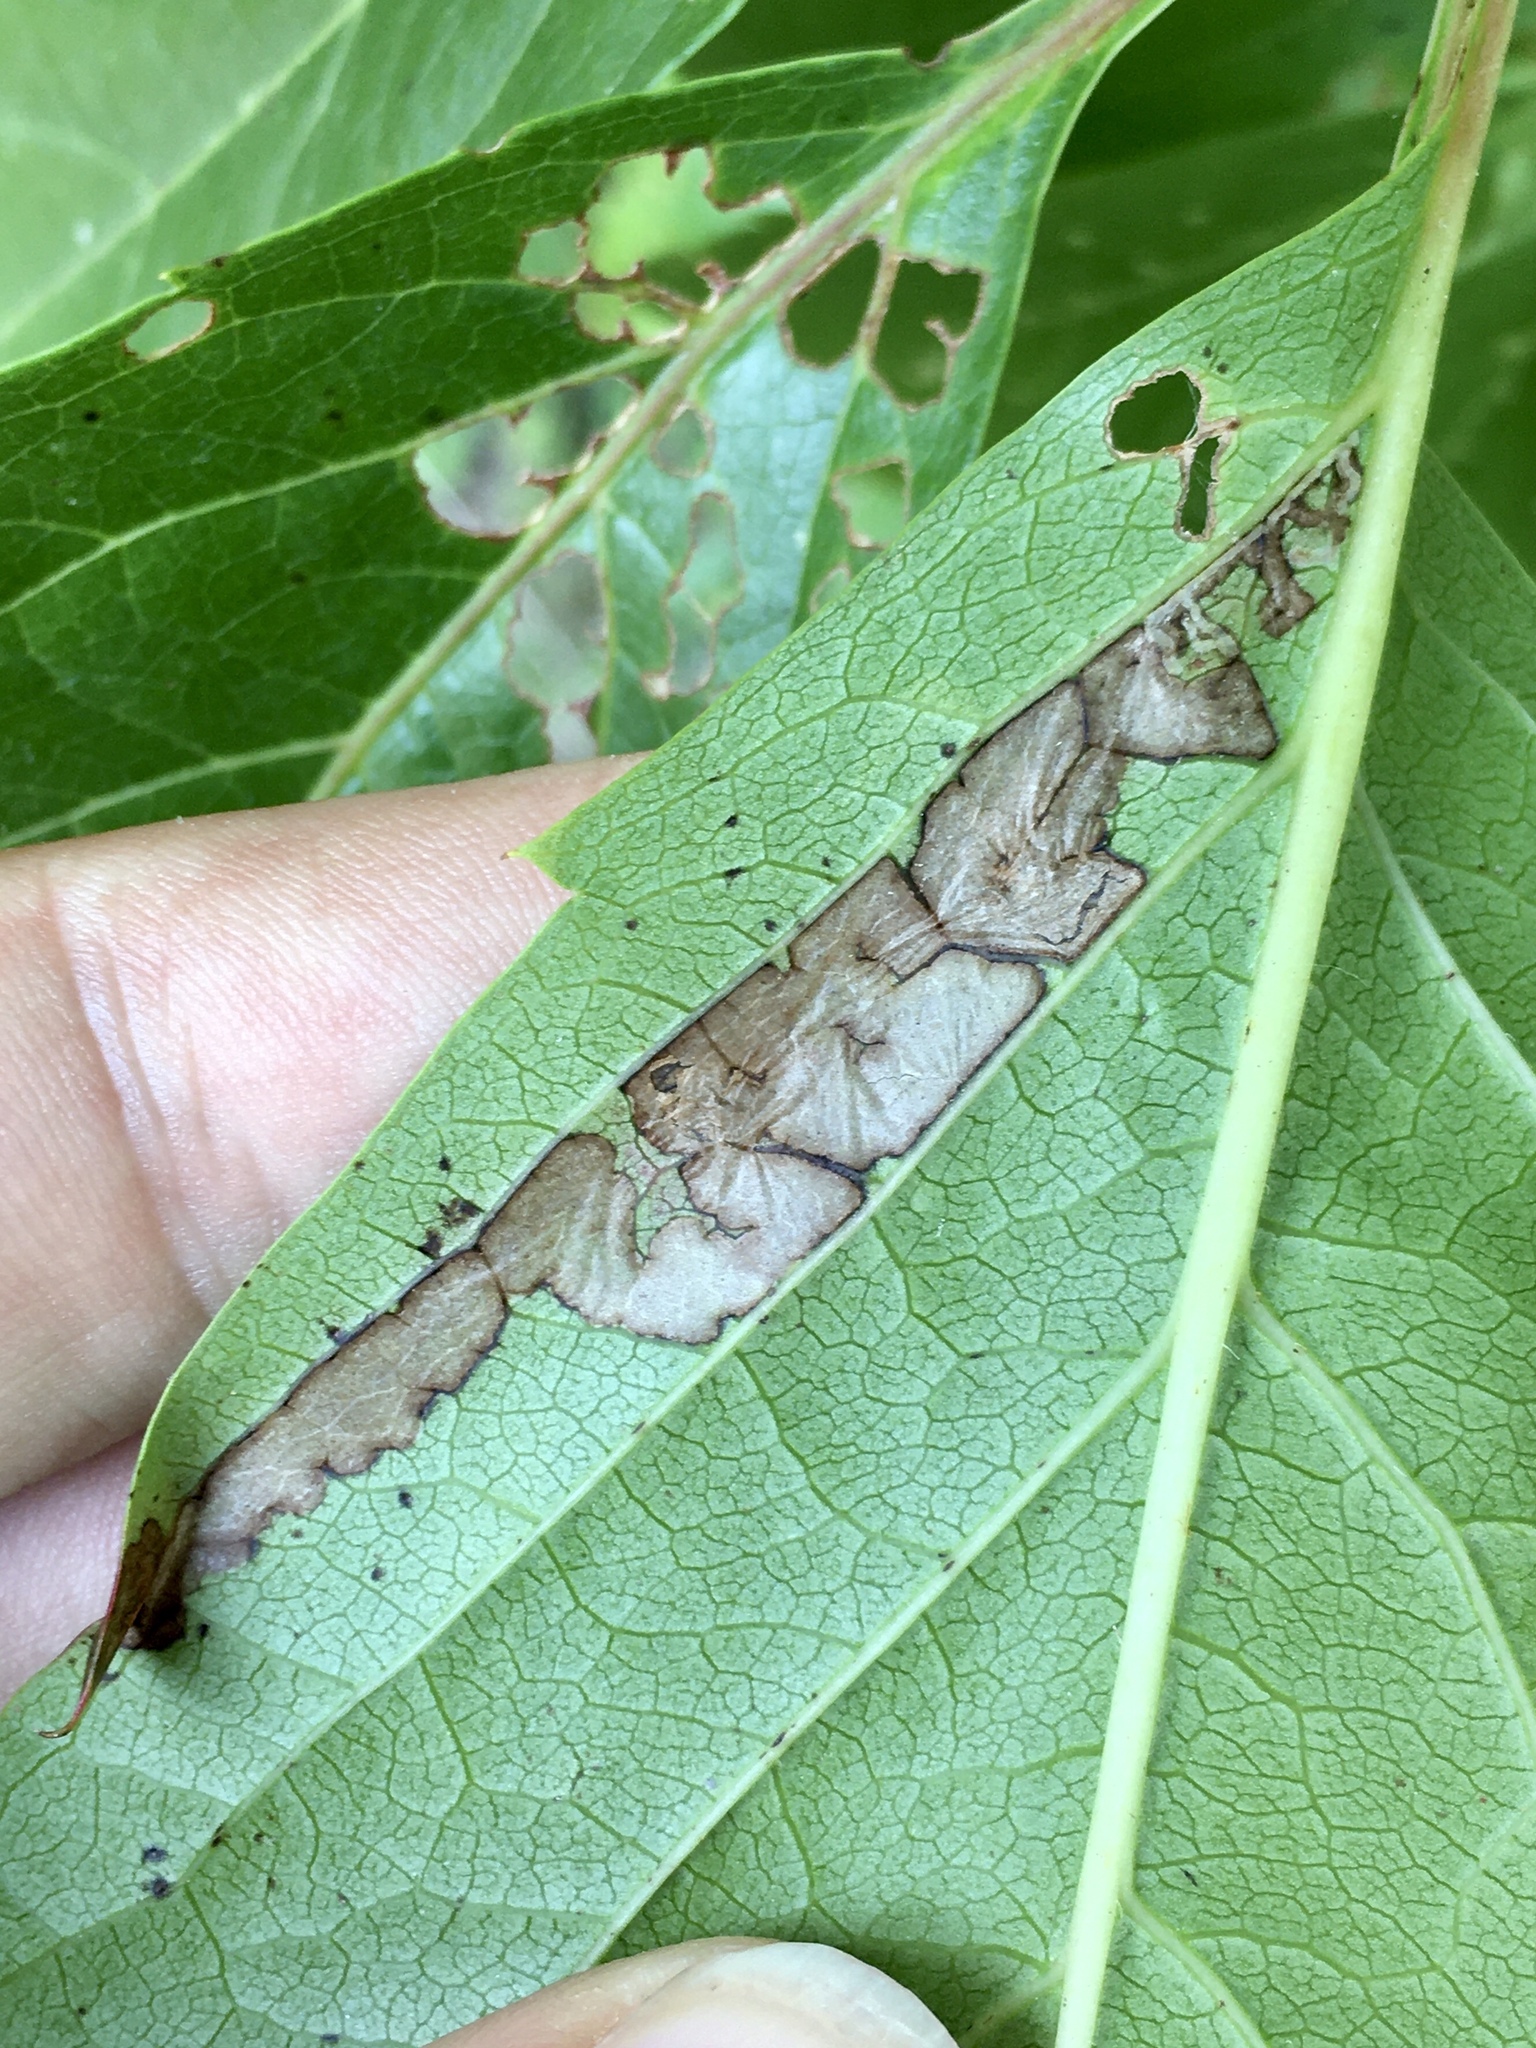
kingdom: Animalia
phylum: Arthropoda
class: Insecta
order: Lepidoptera
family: Gracillariidae
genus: Phyllocnistis
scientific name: Phyllocnistis ampelopsiella
